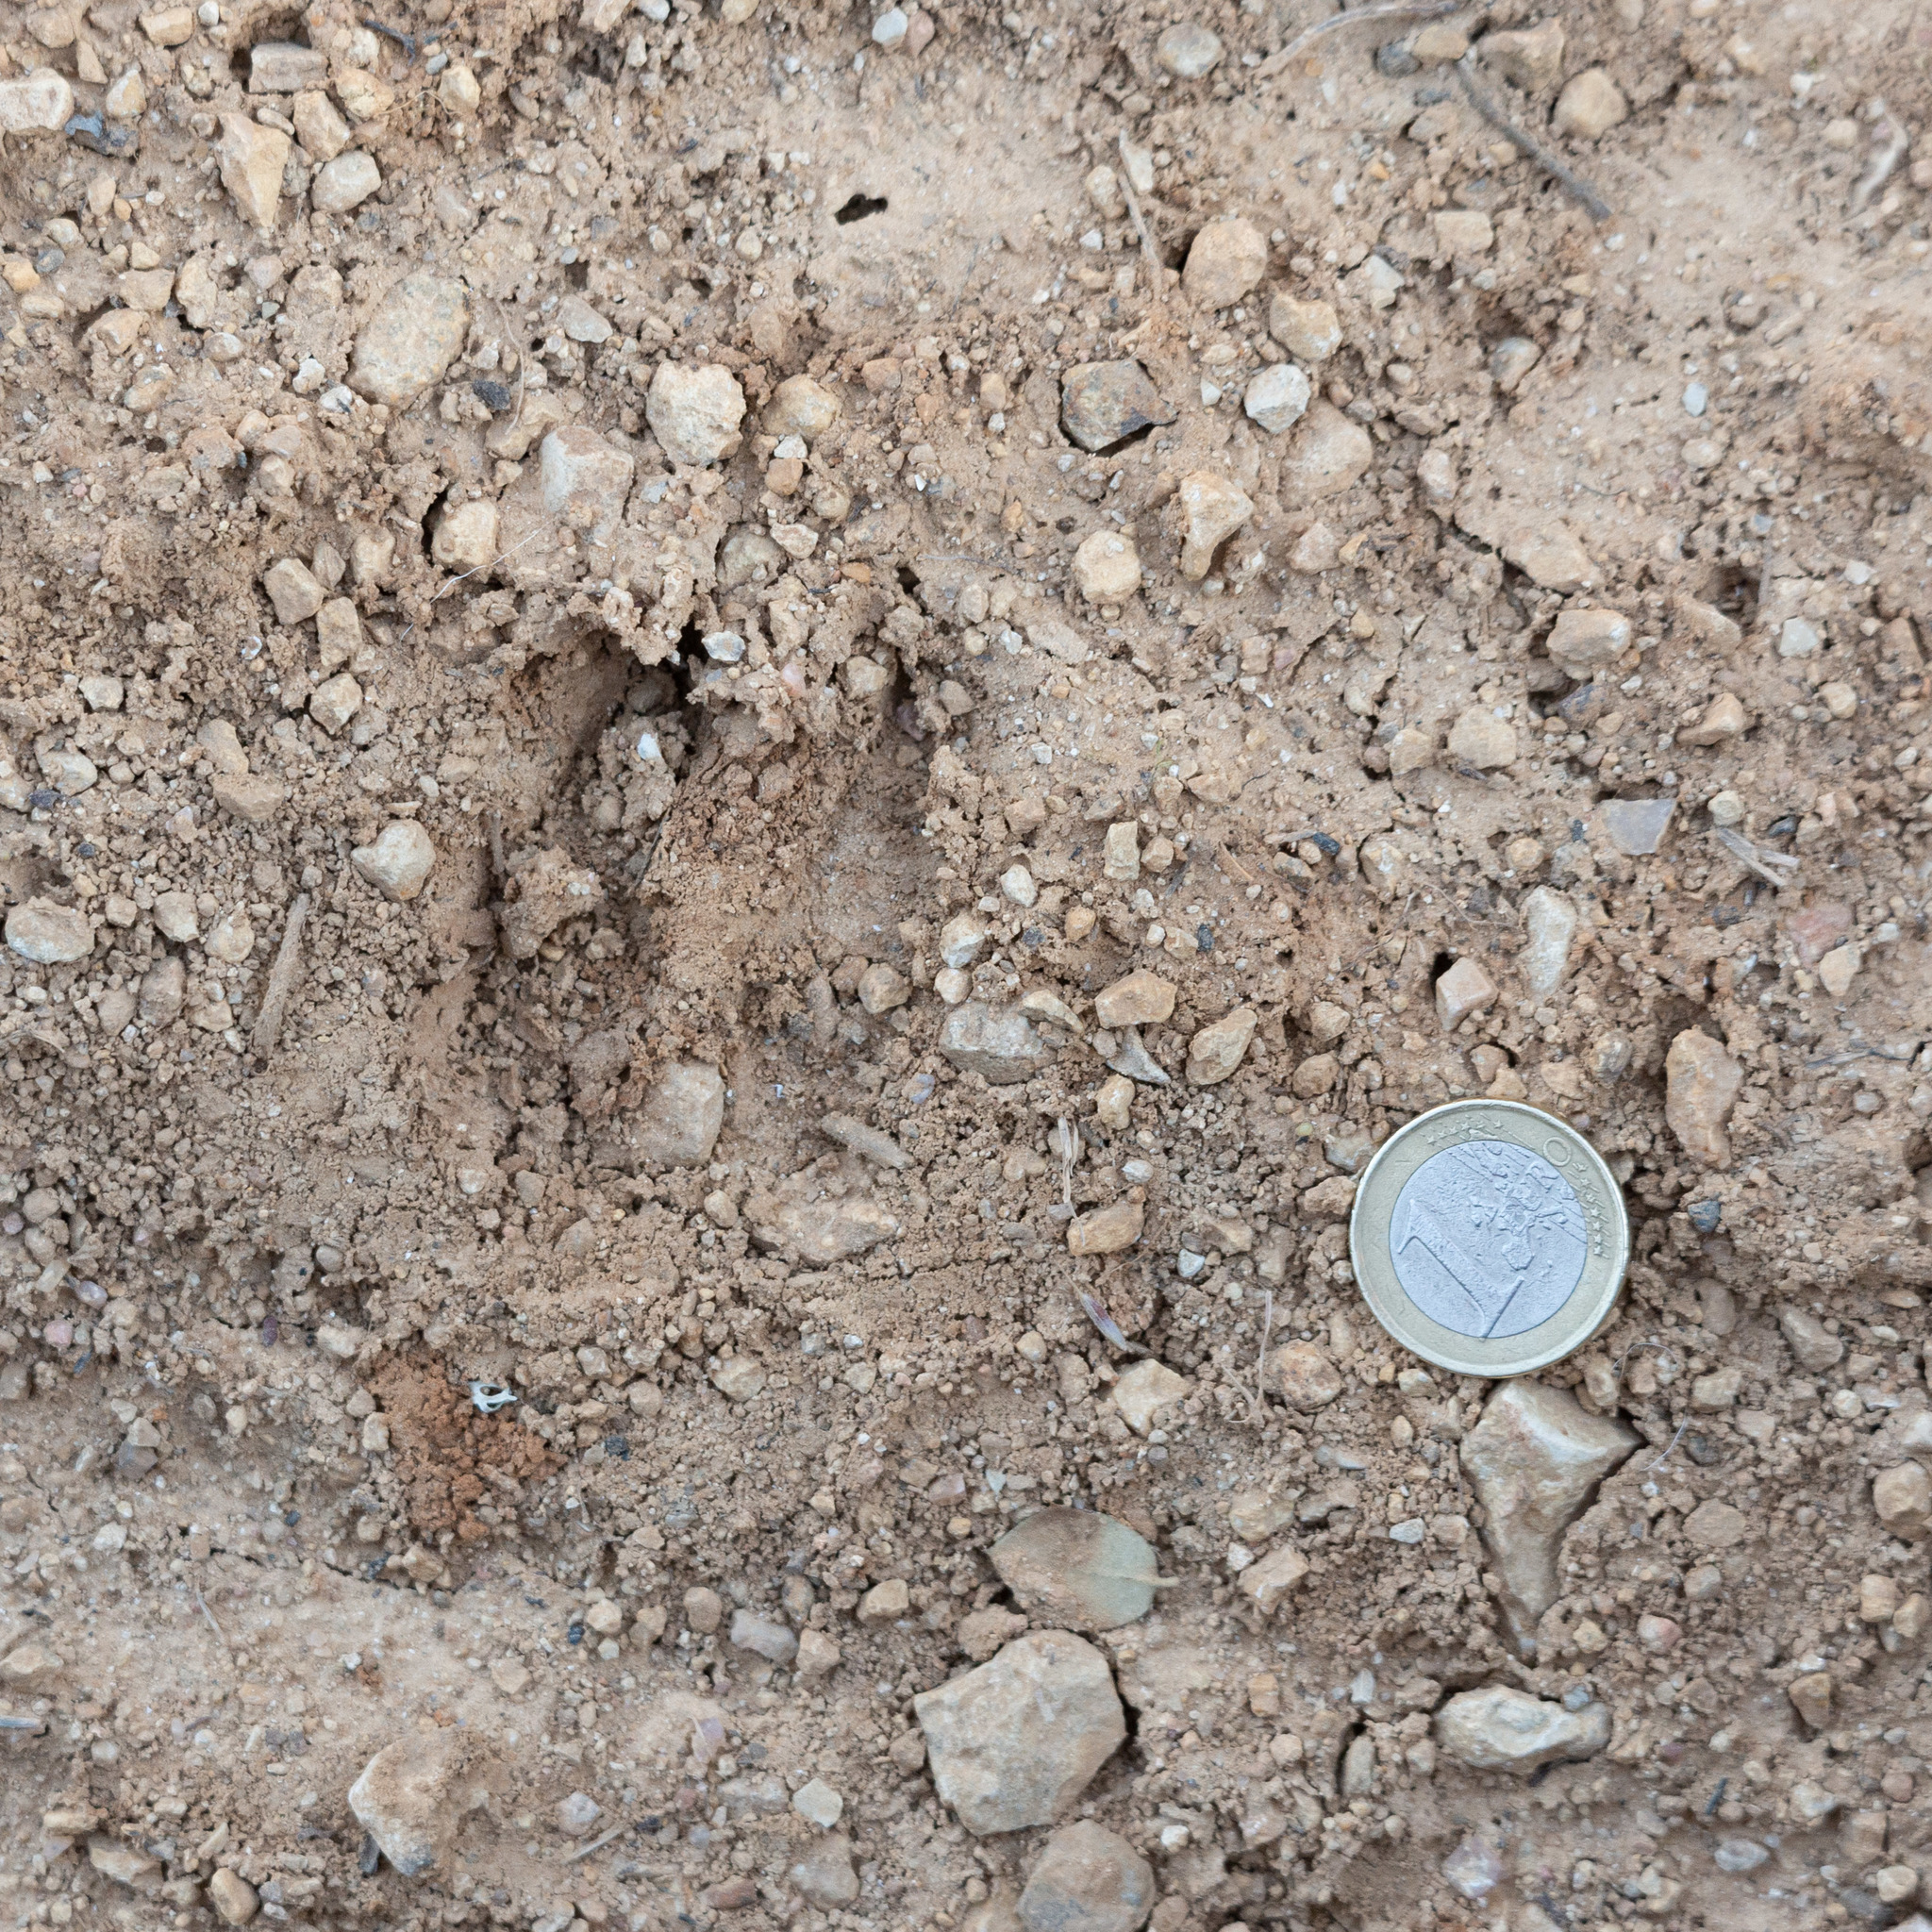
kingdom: Animalia
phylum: Chordata
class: Mammalia
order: Artiodactyla
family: Cervidae
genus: Capreolus
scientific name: Capreolus capreolus
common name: Western roe deer
